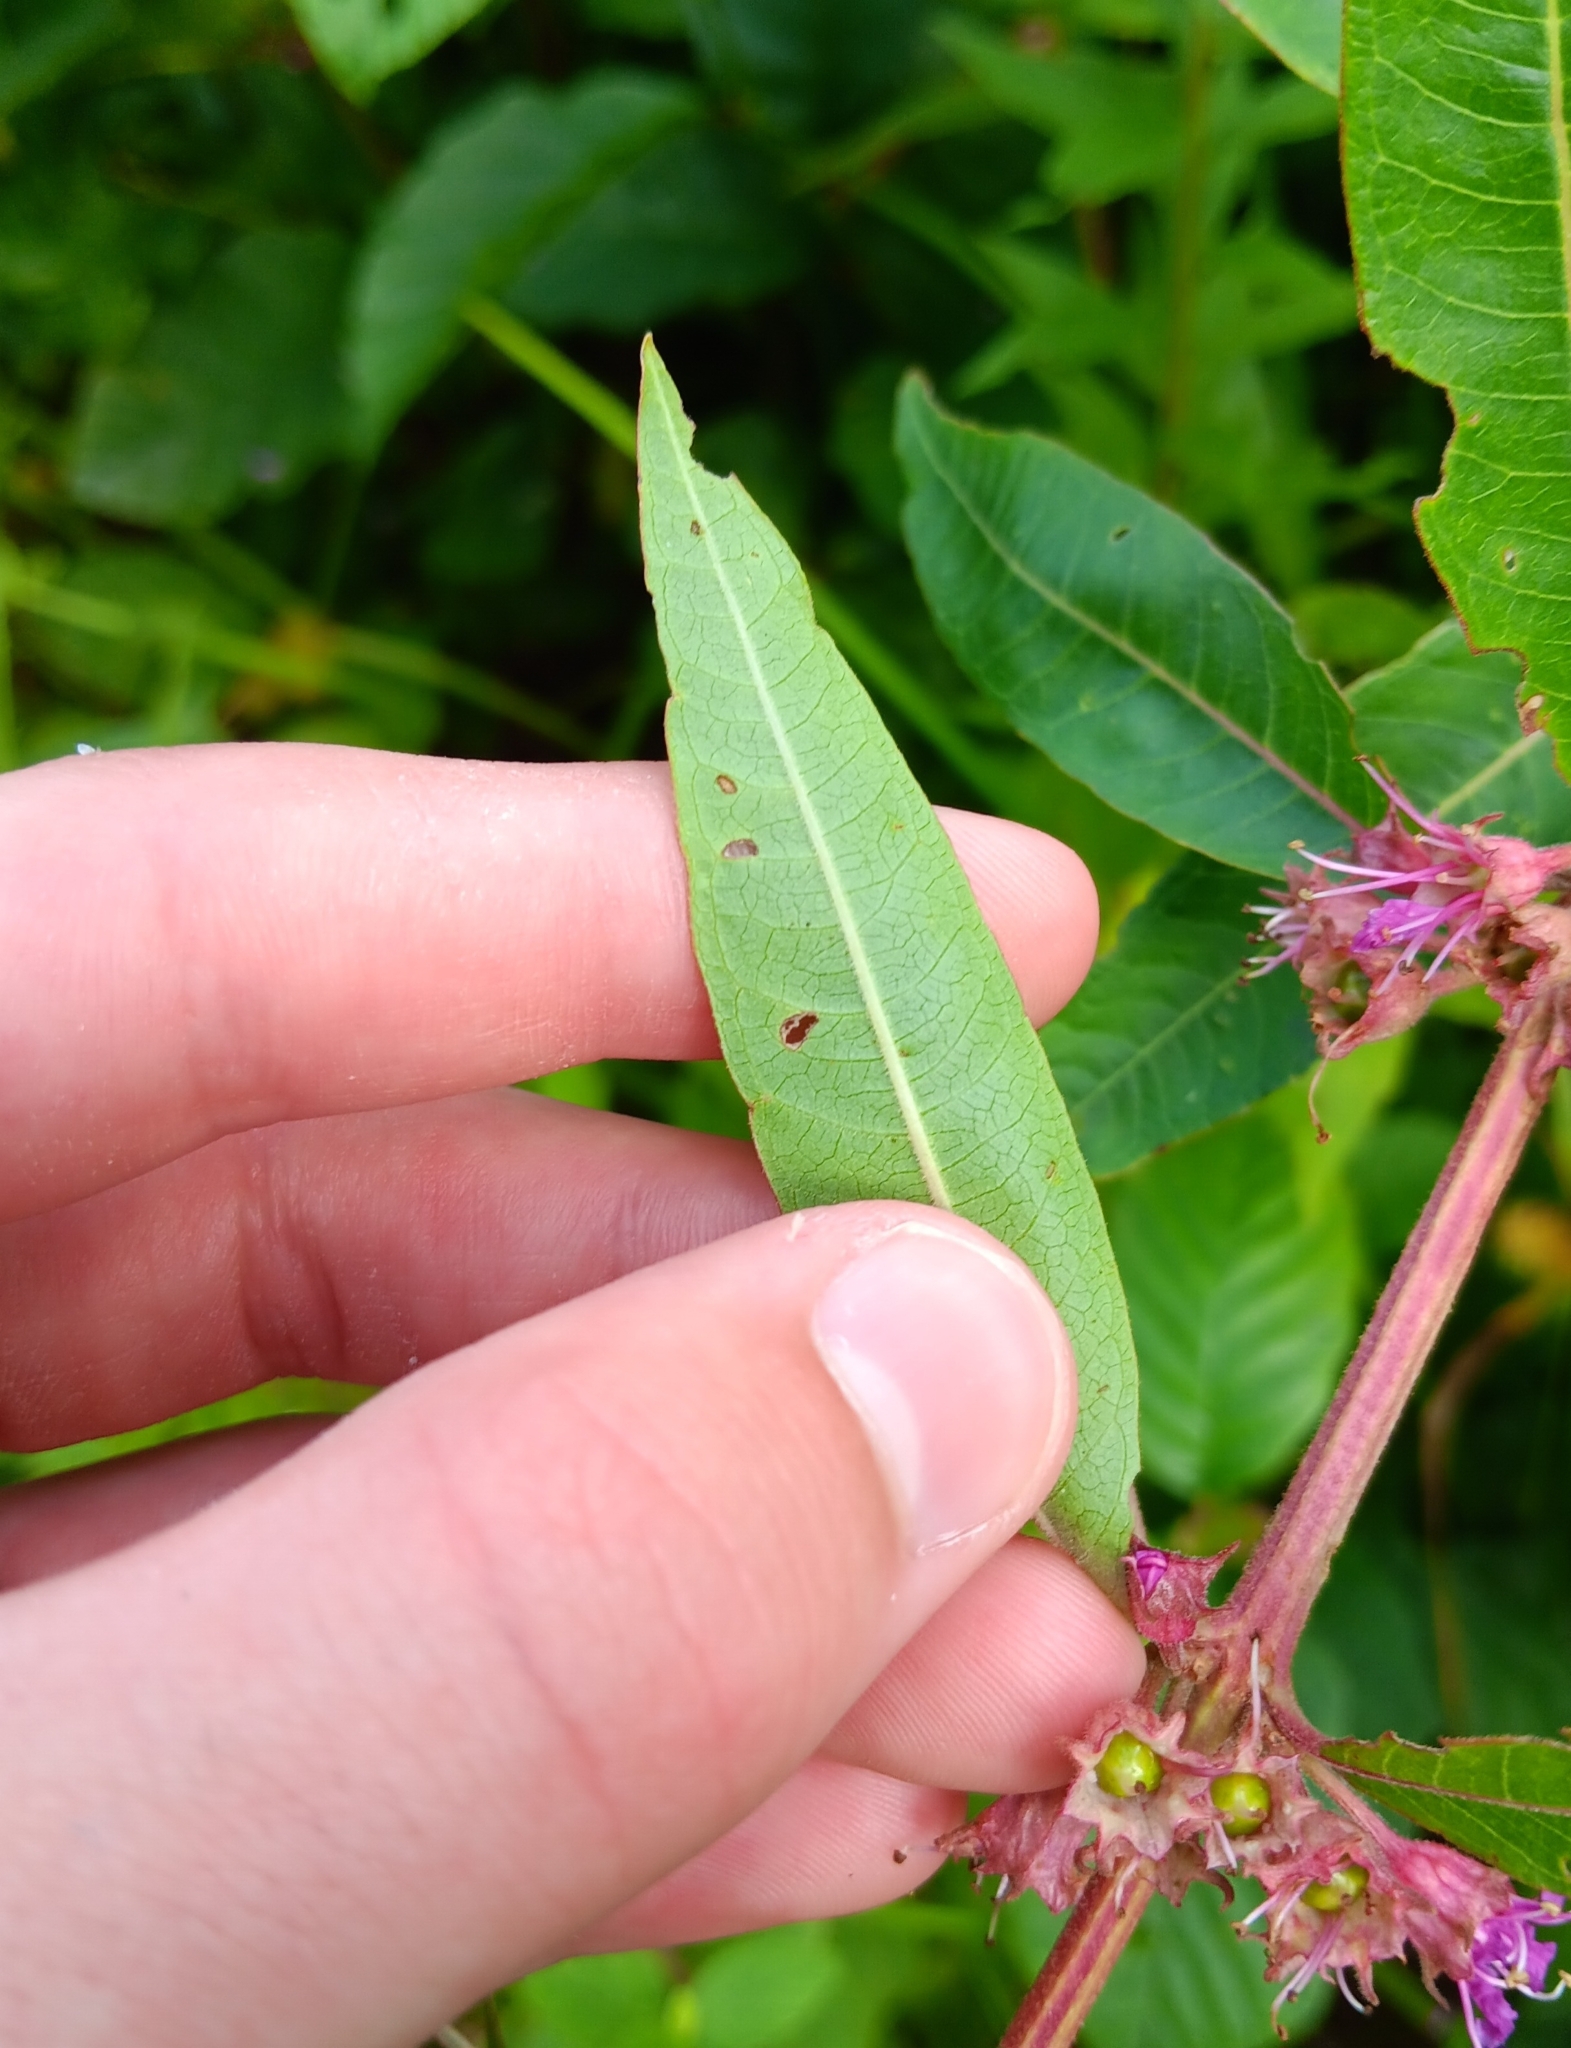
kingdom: Plantae
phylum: Tracheophyta
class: Magnoliopsida
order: Myrtales
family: Lythraceae
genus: Decodon
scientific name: Decodon verticillatus
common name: Hairy swamp loosestrife
